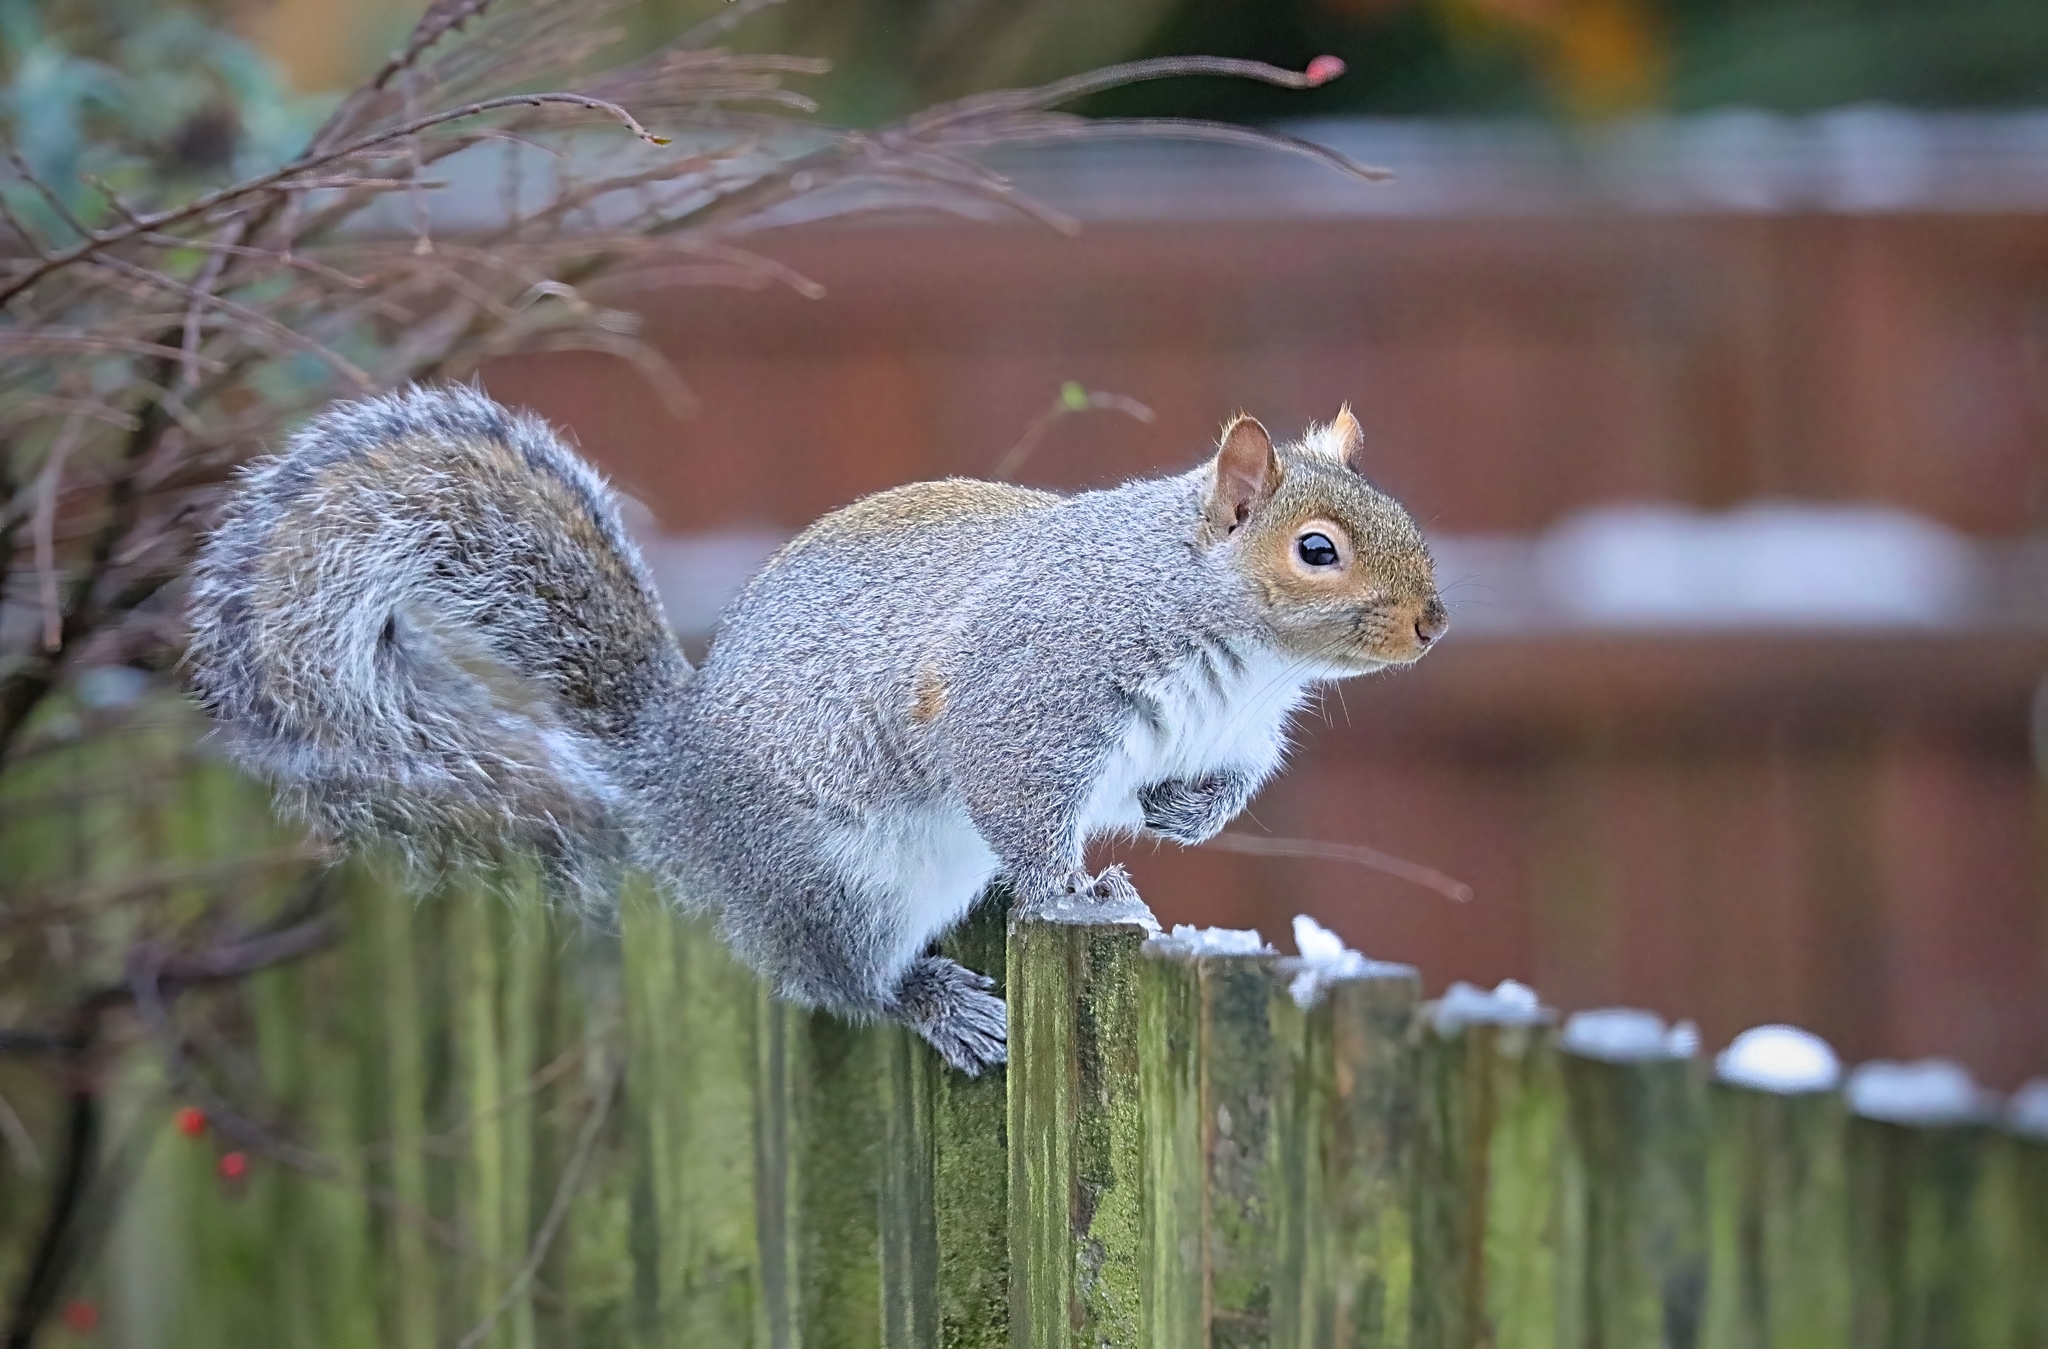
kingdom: Animalia
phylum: Chordata
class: Mammalia
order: Rodentia
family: Sciuridae
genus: Sciurus
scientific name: Sciurus carolinensis
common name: Eastern gray squirrel
